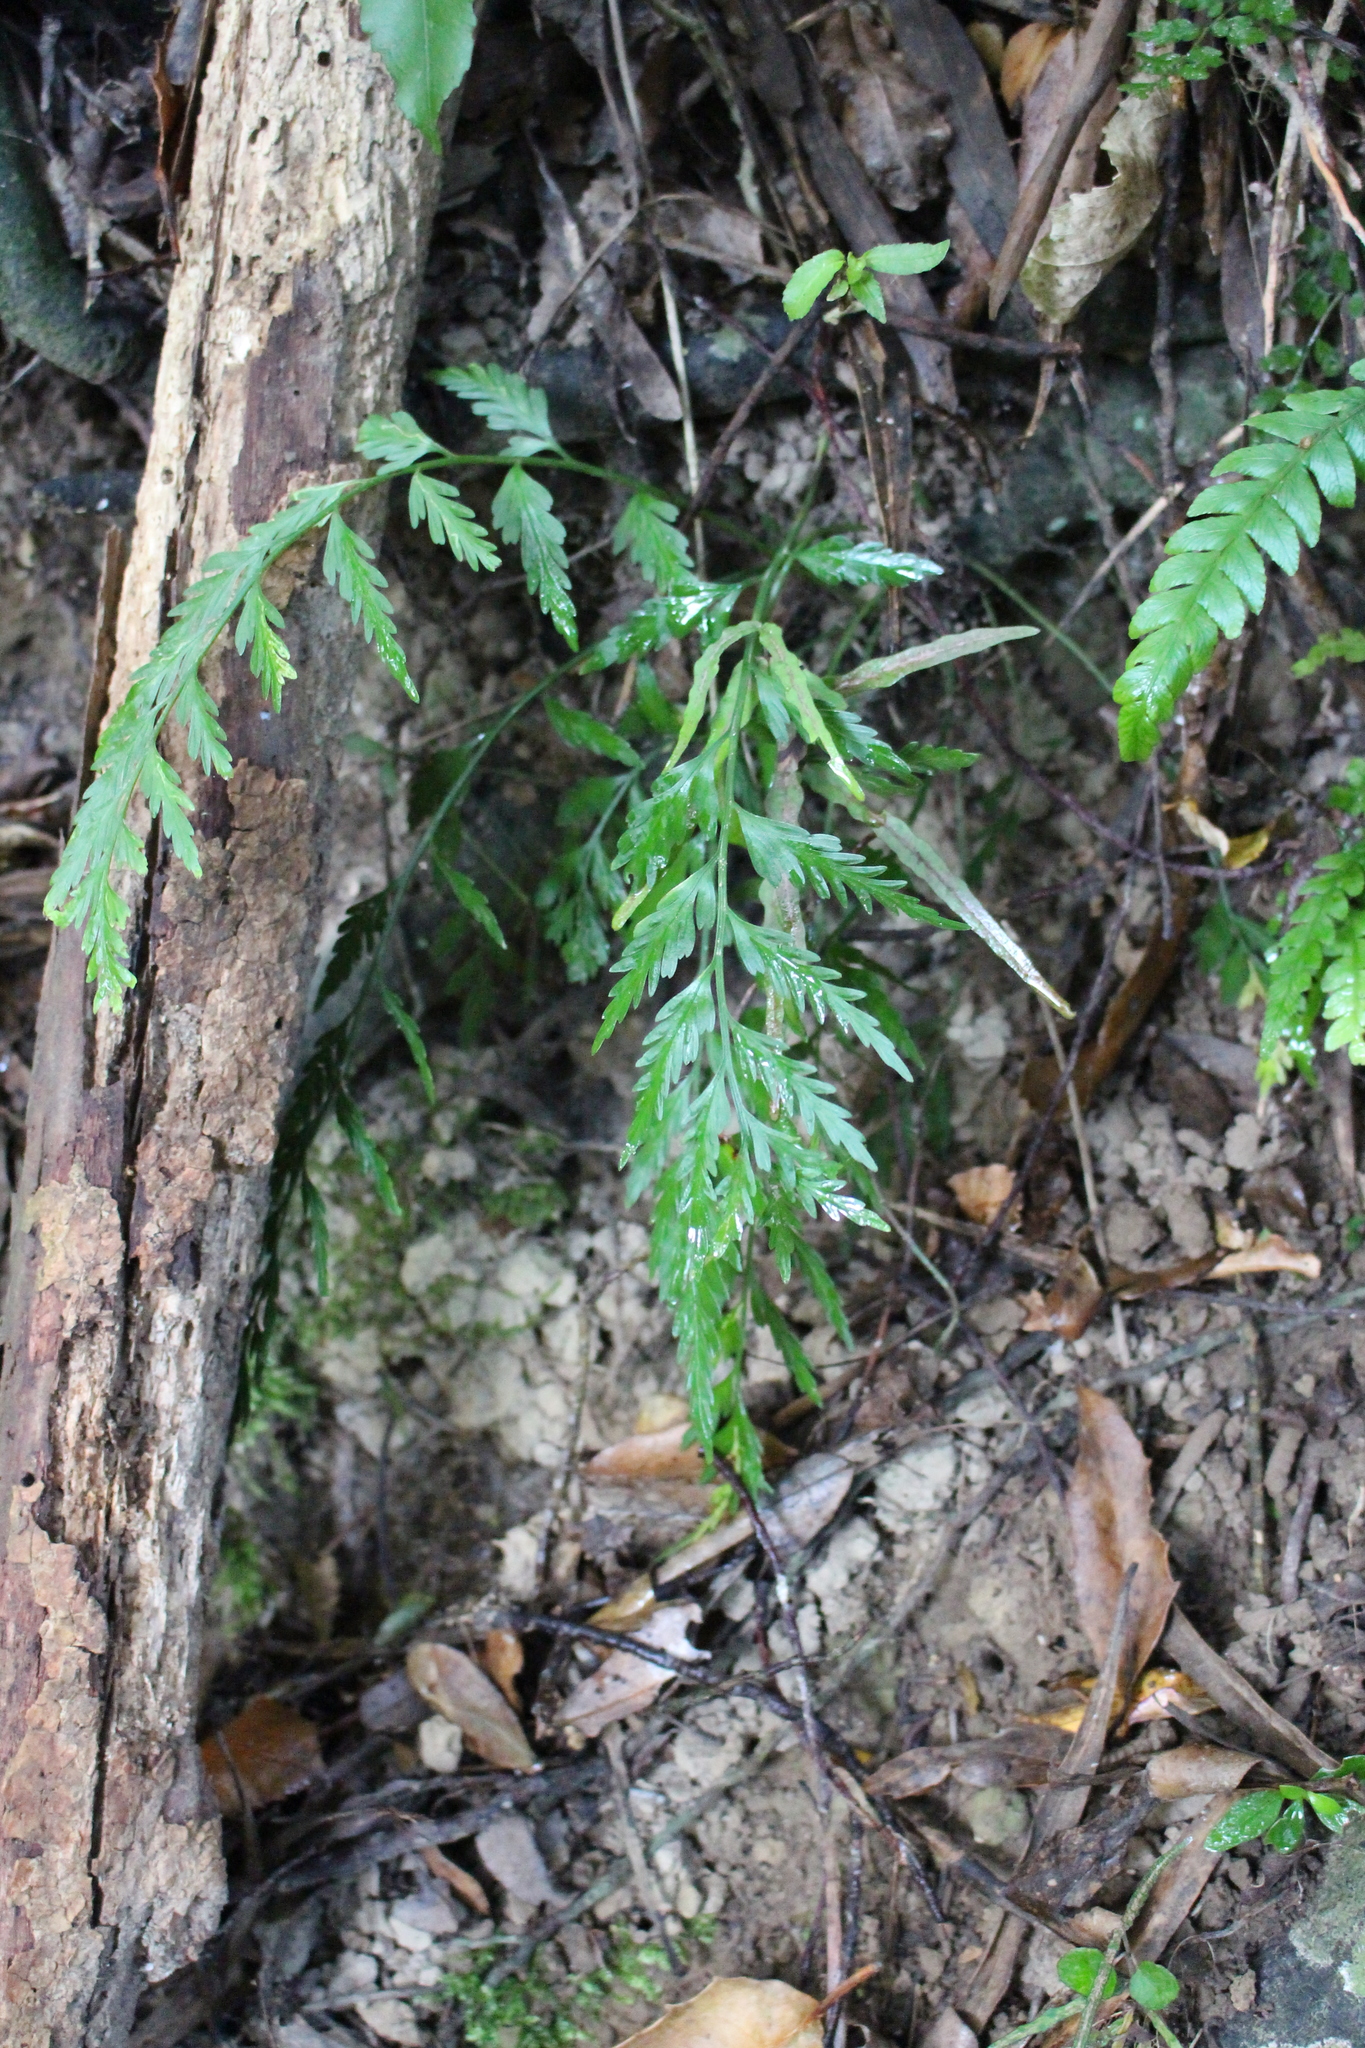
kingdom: Plantae
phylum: Tracheophyta
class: Polypodiopsida
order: Polypodiales
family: Aspleniaceae
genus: Asplenium
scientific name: Asplenium appendiculatum
